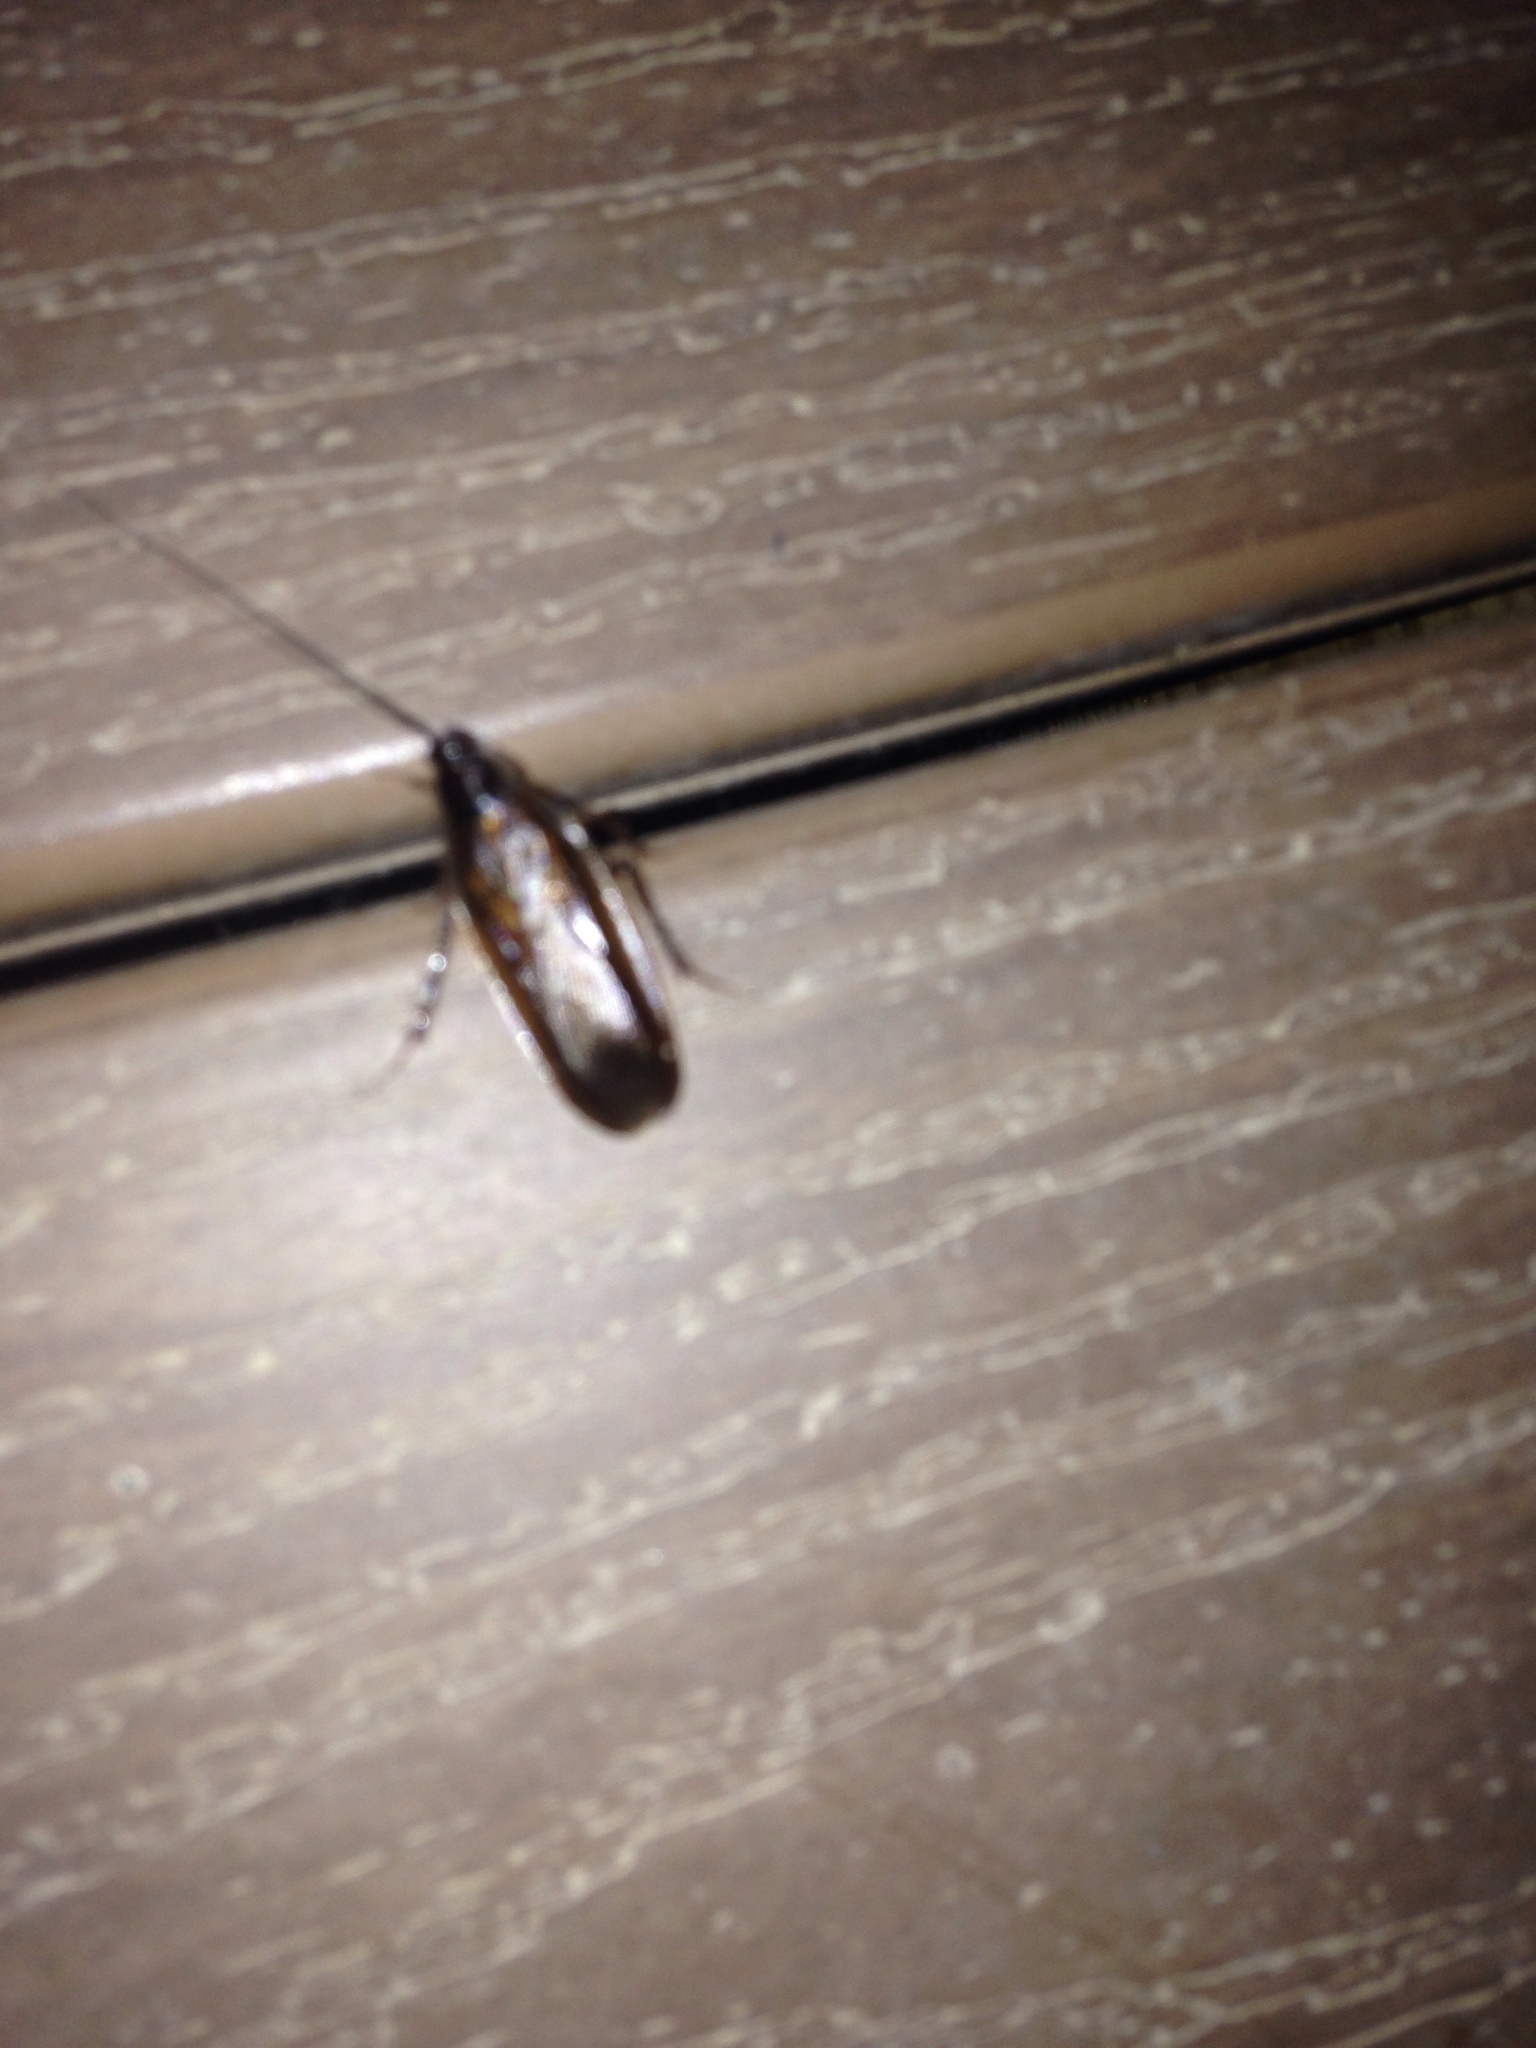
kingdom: Animalia
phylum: Arthropoda
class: Insecta
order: Blattodea
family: Ectobiidae
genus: Blattella
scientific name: Blattella germanica
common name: German cockroach
